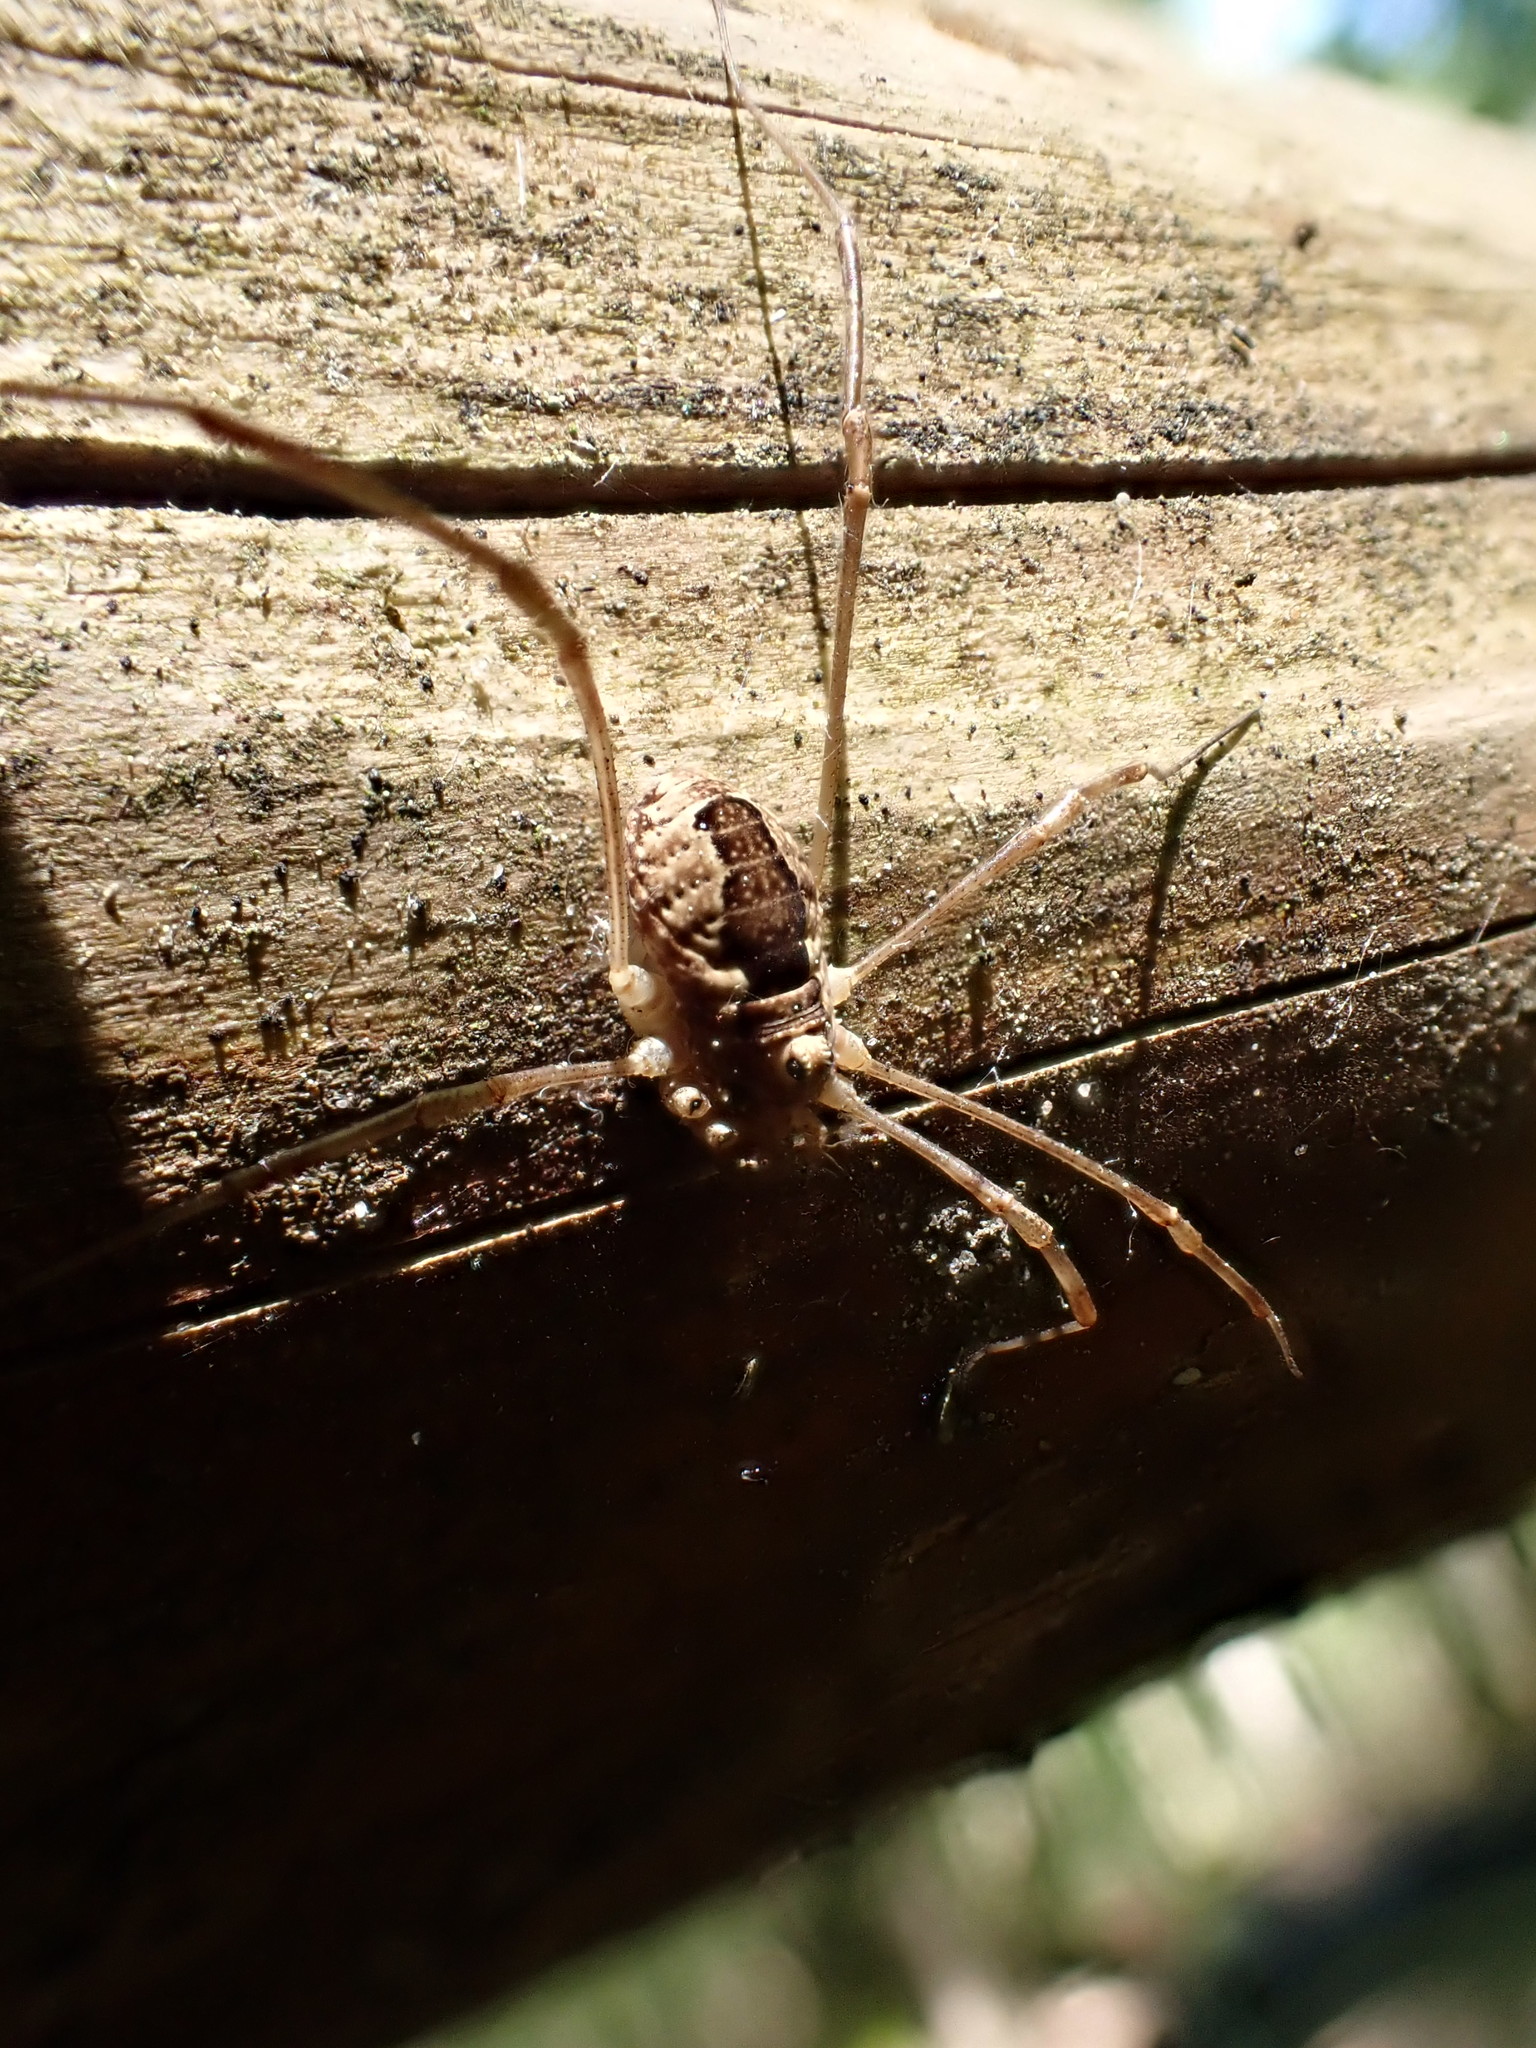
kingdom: Animalia
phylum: Arthropoda
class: Arachnida
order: Opiliones
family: Phalangiidae
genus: Rilaena
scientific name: Rilaena triangularis
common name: Spring harvestman
